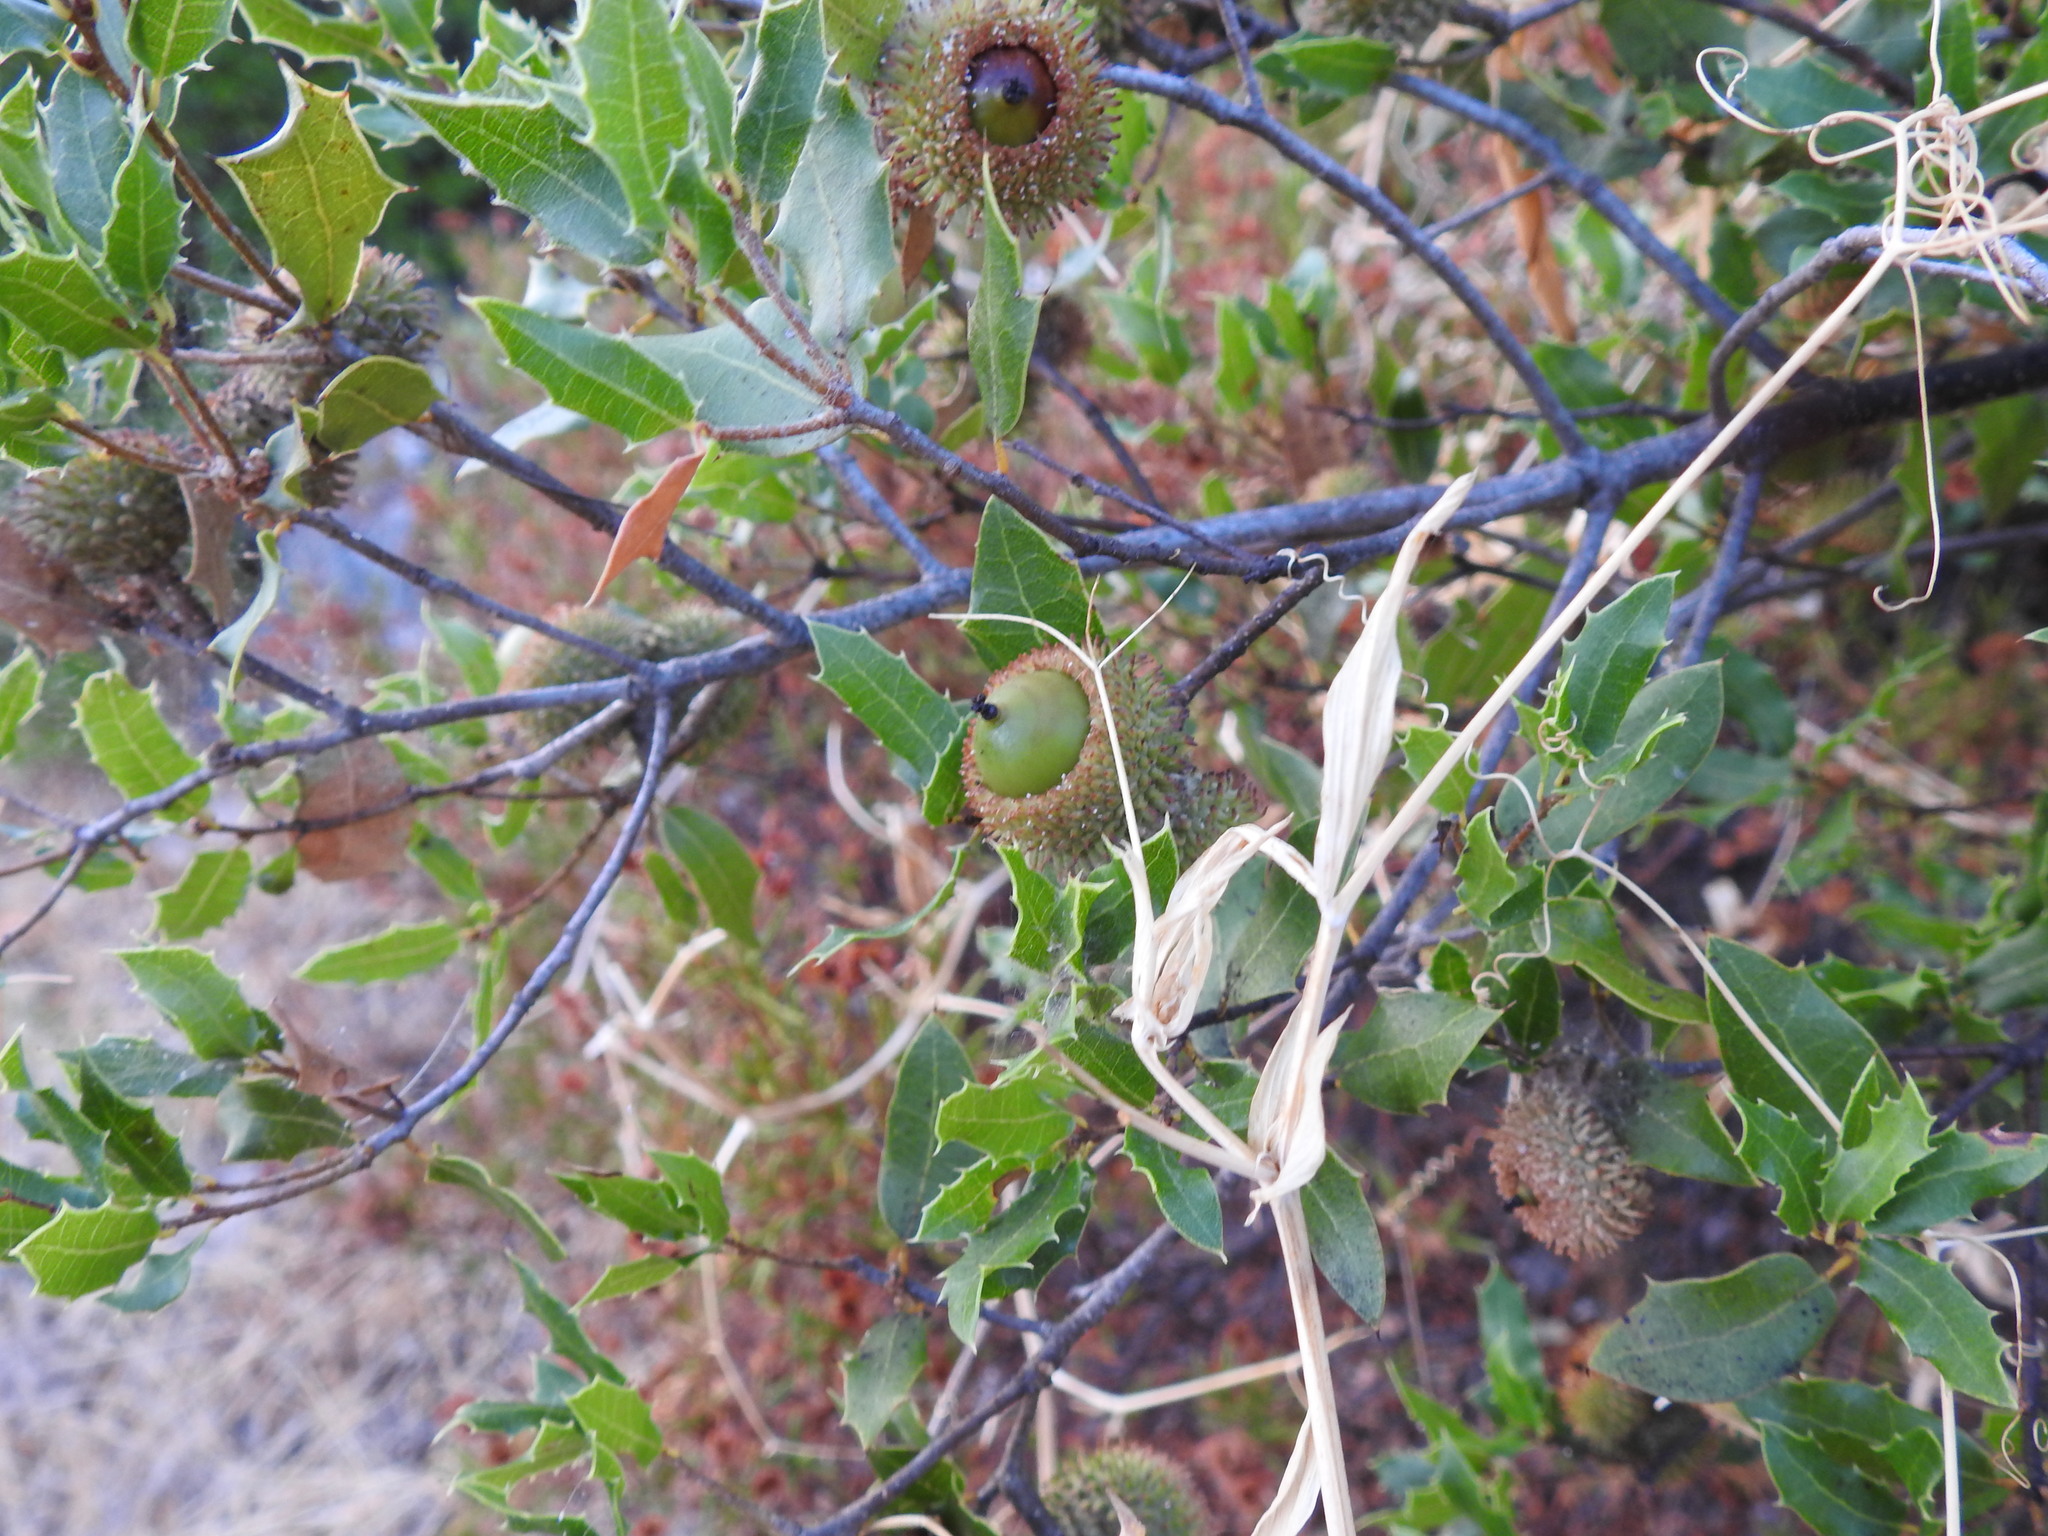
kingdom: Plantae
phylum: Tracheophyta
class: Magnoliopsida
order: Fagales
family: Fagaceae
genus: Quercus
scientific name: Quercus coccifera
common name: Kermes oak
